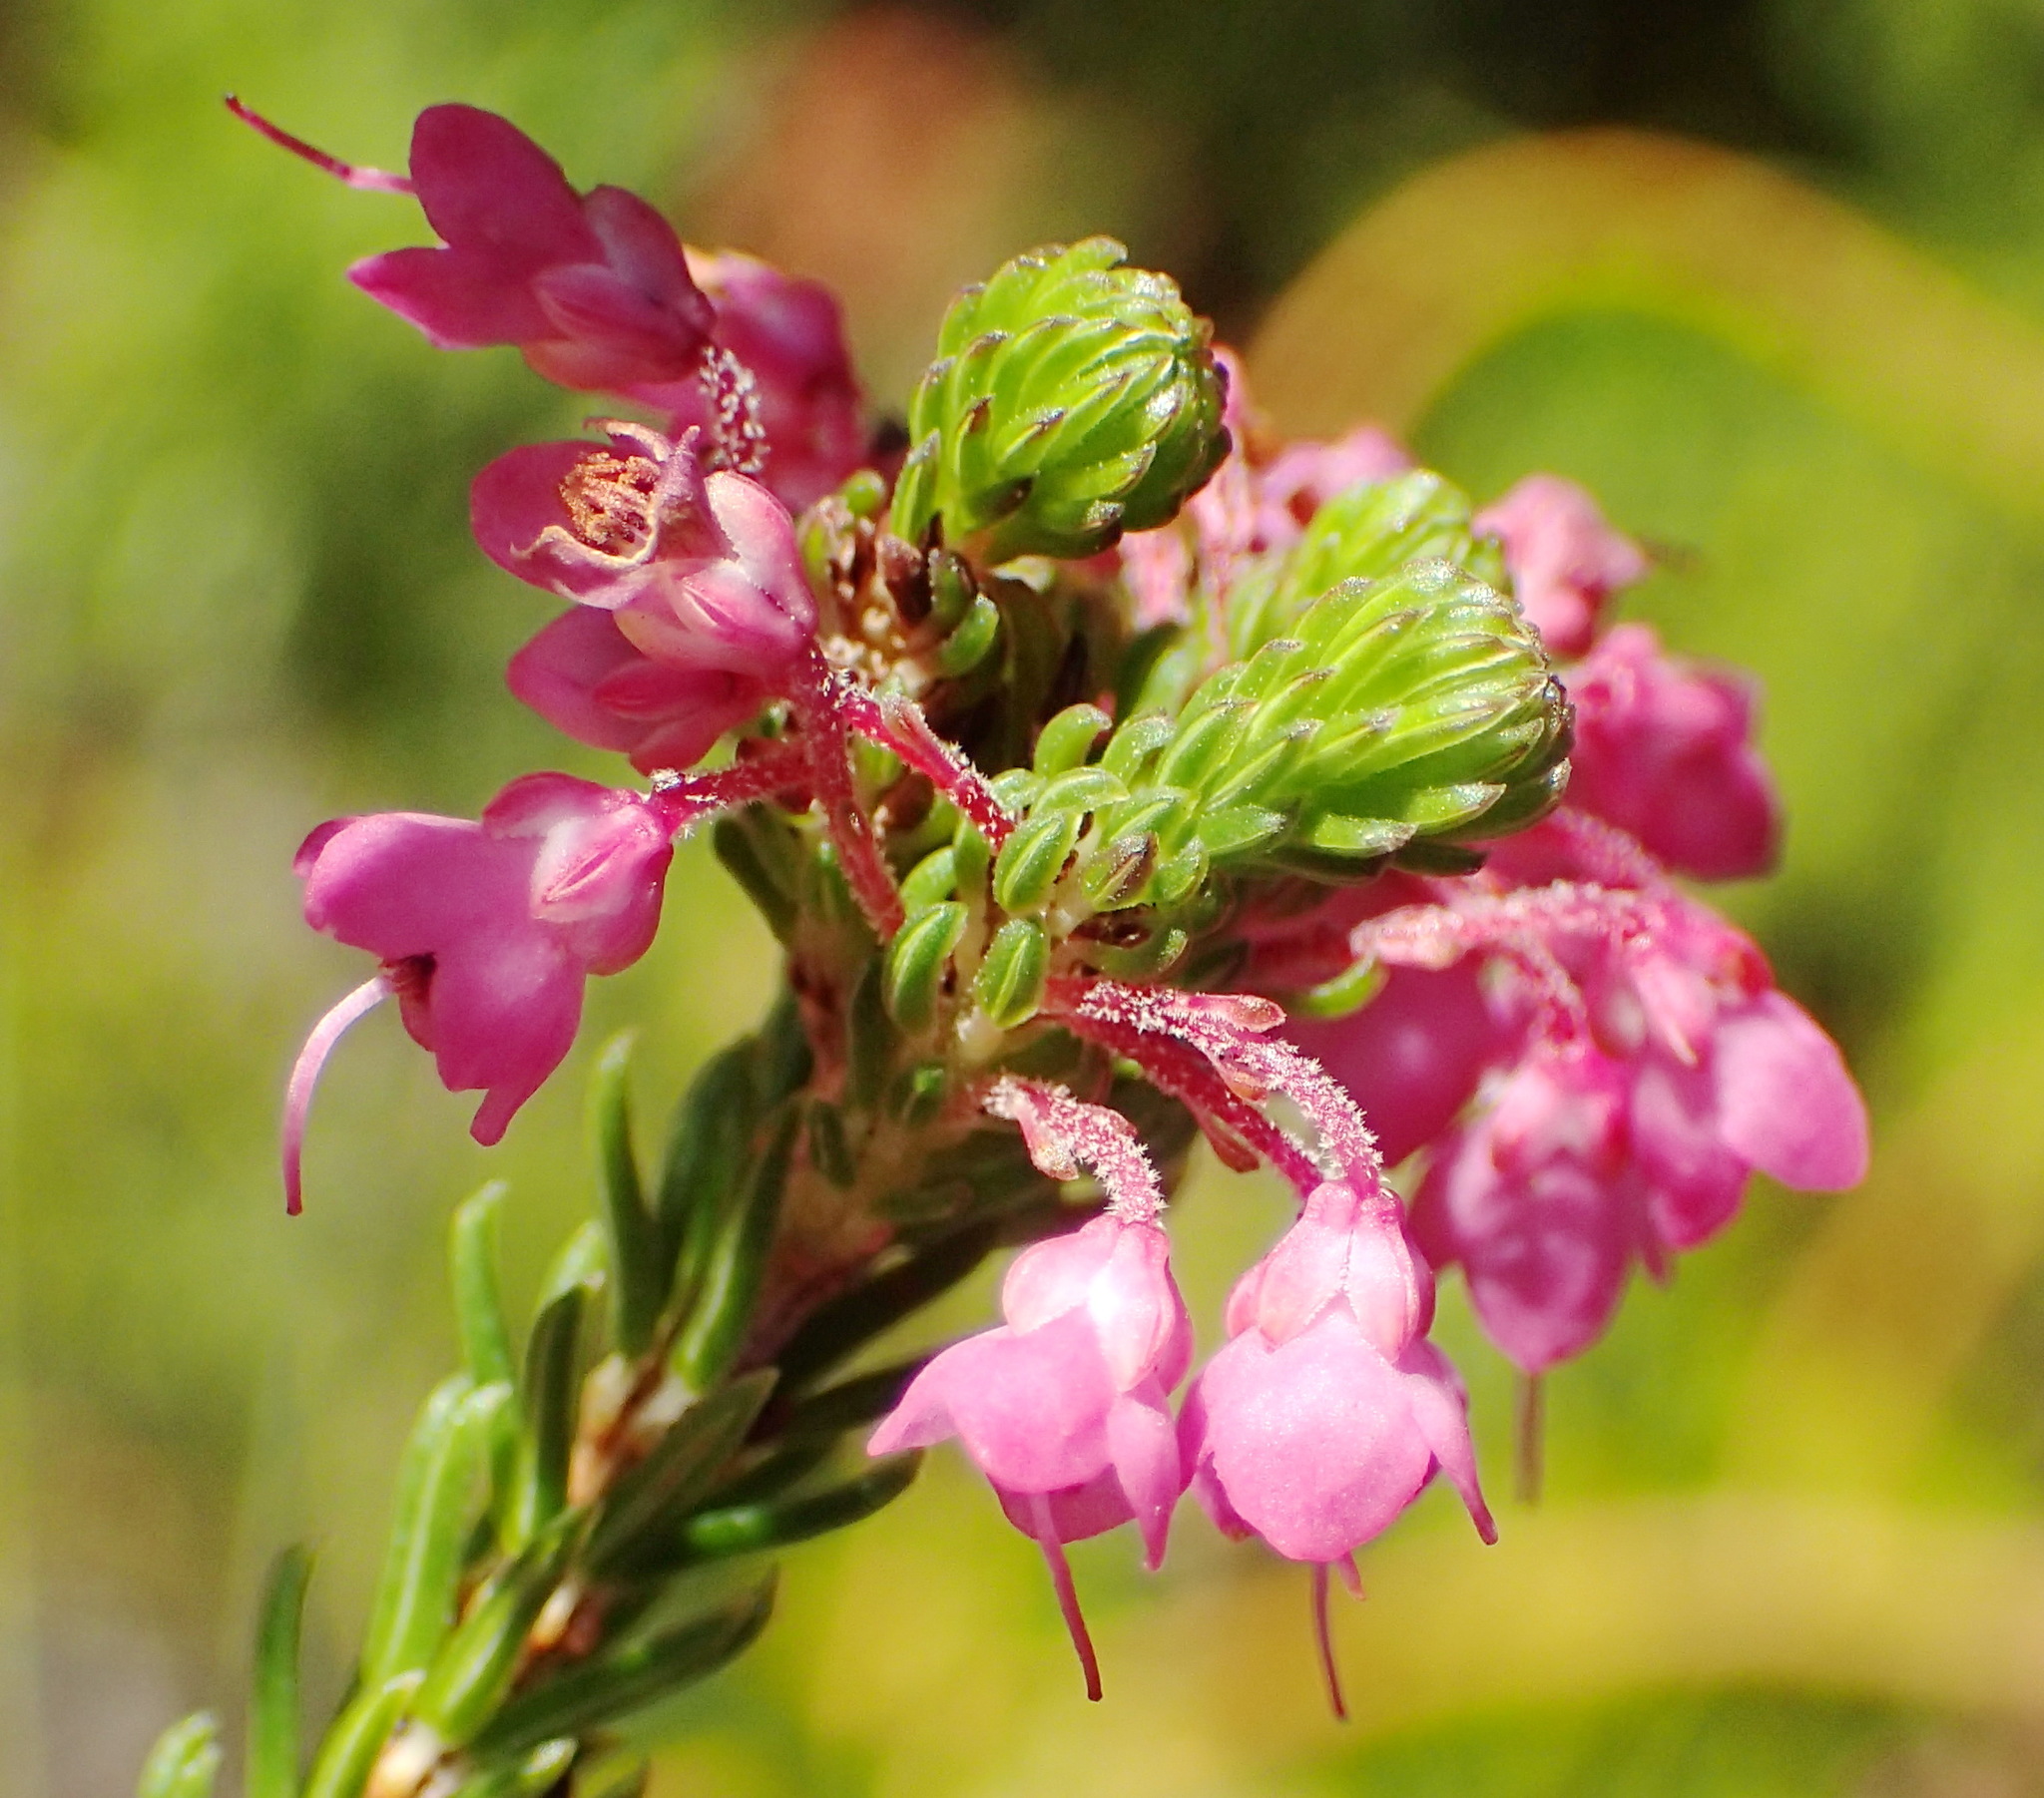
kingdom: Plantae
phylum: Tracheophyta
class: Magnoliopsida
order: Ericales
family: Ericaceae
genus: Erica
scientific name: Erica cubica
